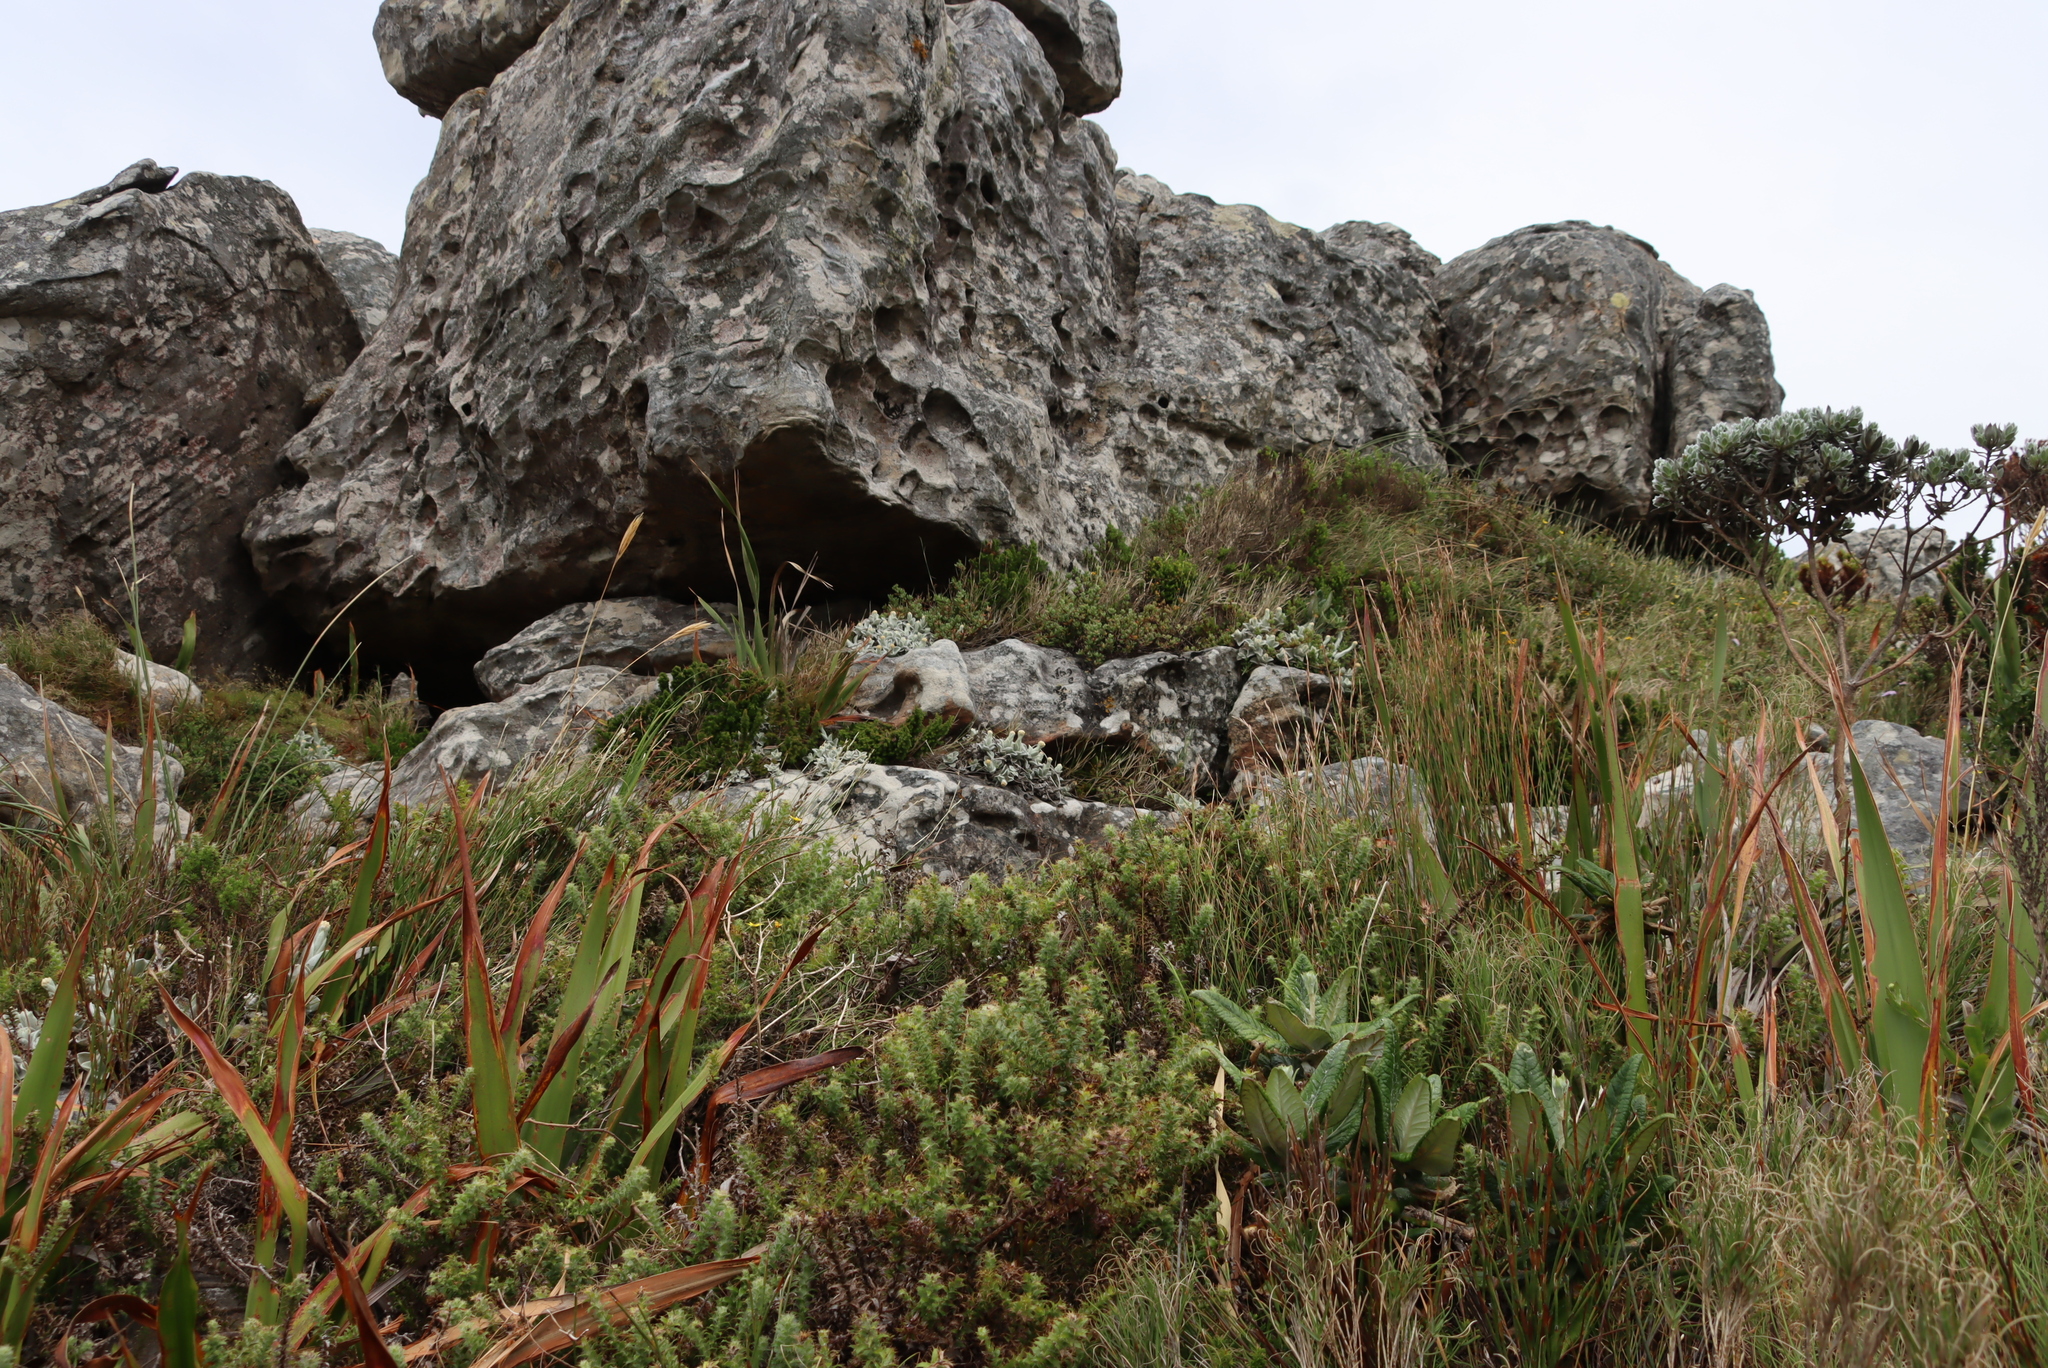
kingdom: Plantae
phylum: Tracheophyta
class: Magnoliopsida
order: Asterales
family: Asteraceae
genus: Helichrysum
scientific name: Helichrysum grandiflorum
